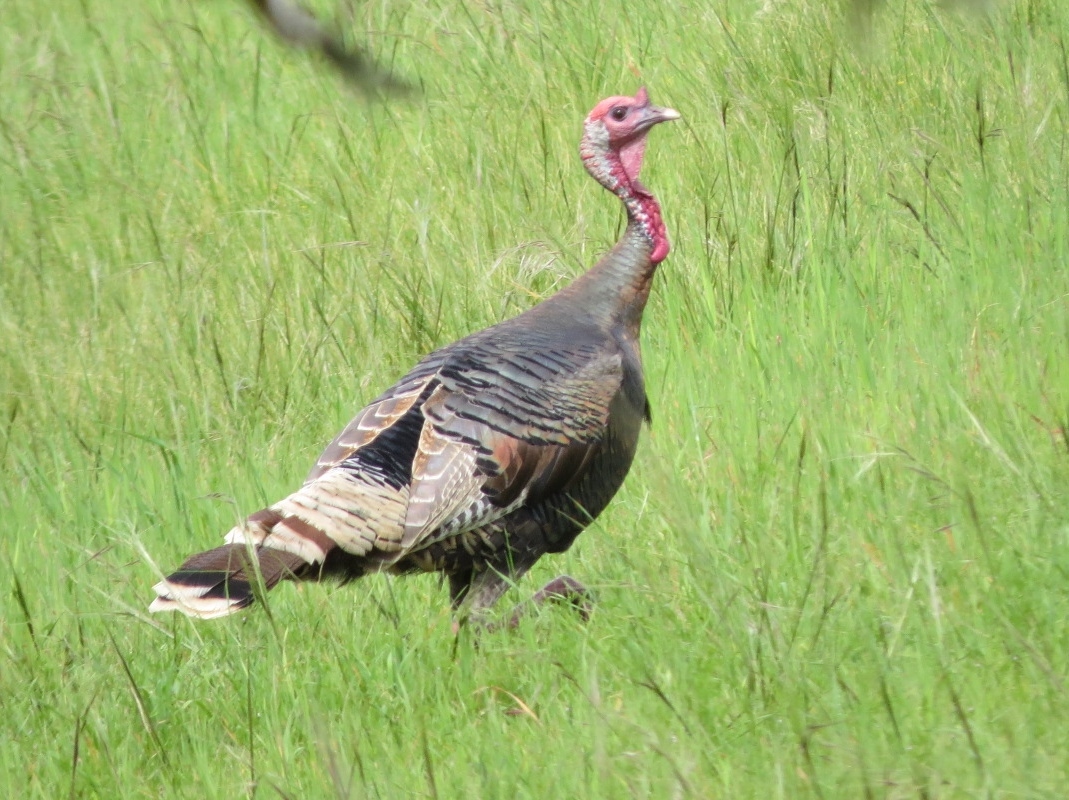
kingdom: Animalia
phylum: Chordata
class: Aves
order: Galliformes
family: Phasianidae
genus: Meleagris
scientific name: Meleagris gallopavo
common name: Wild turkey
